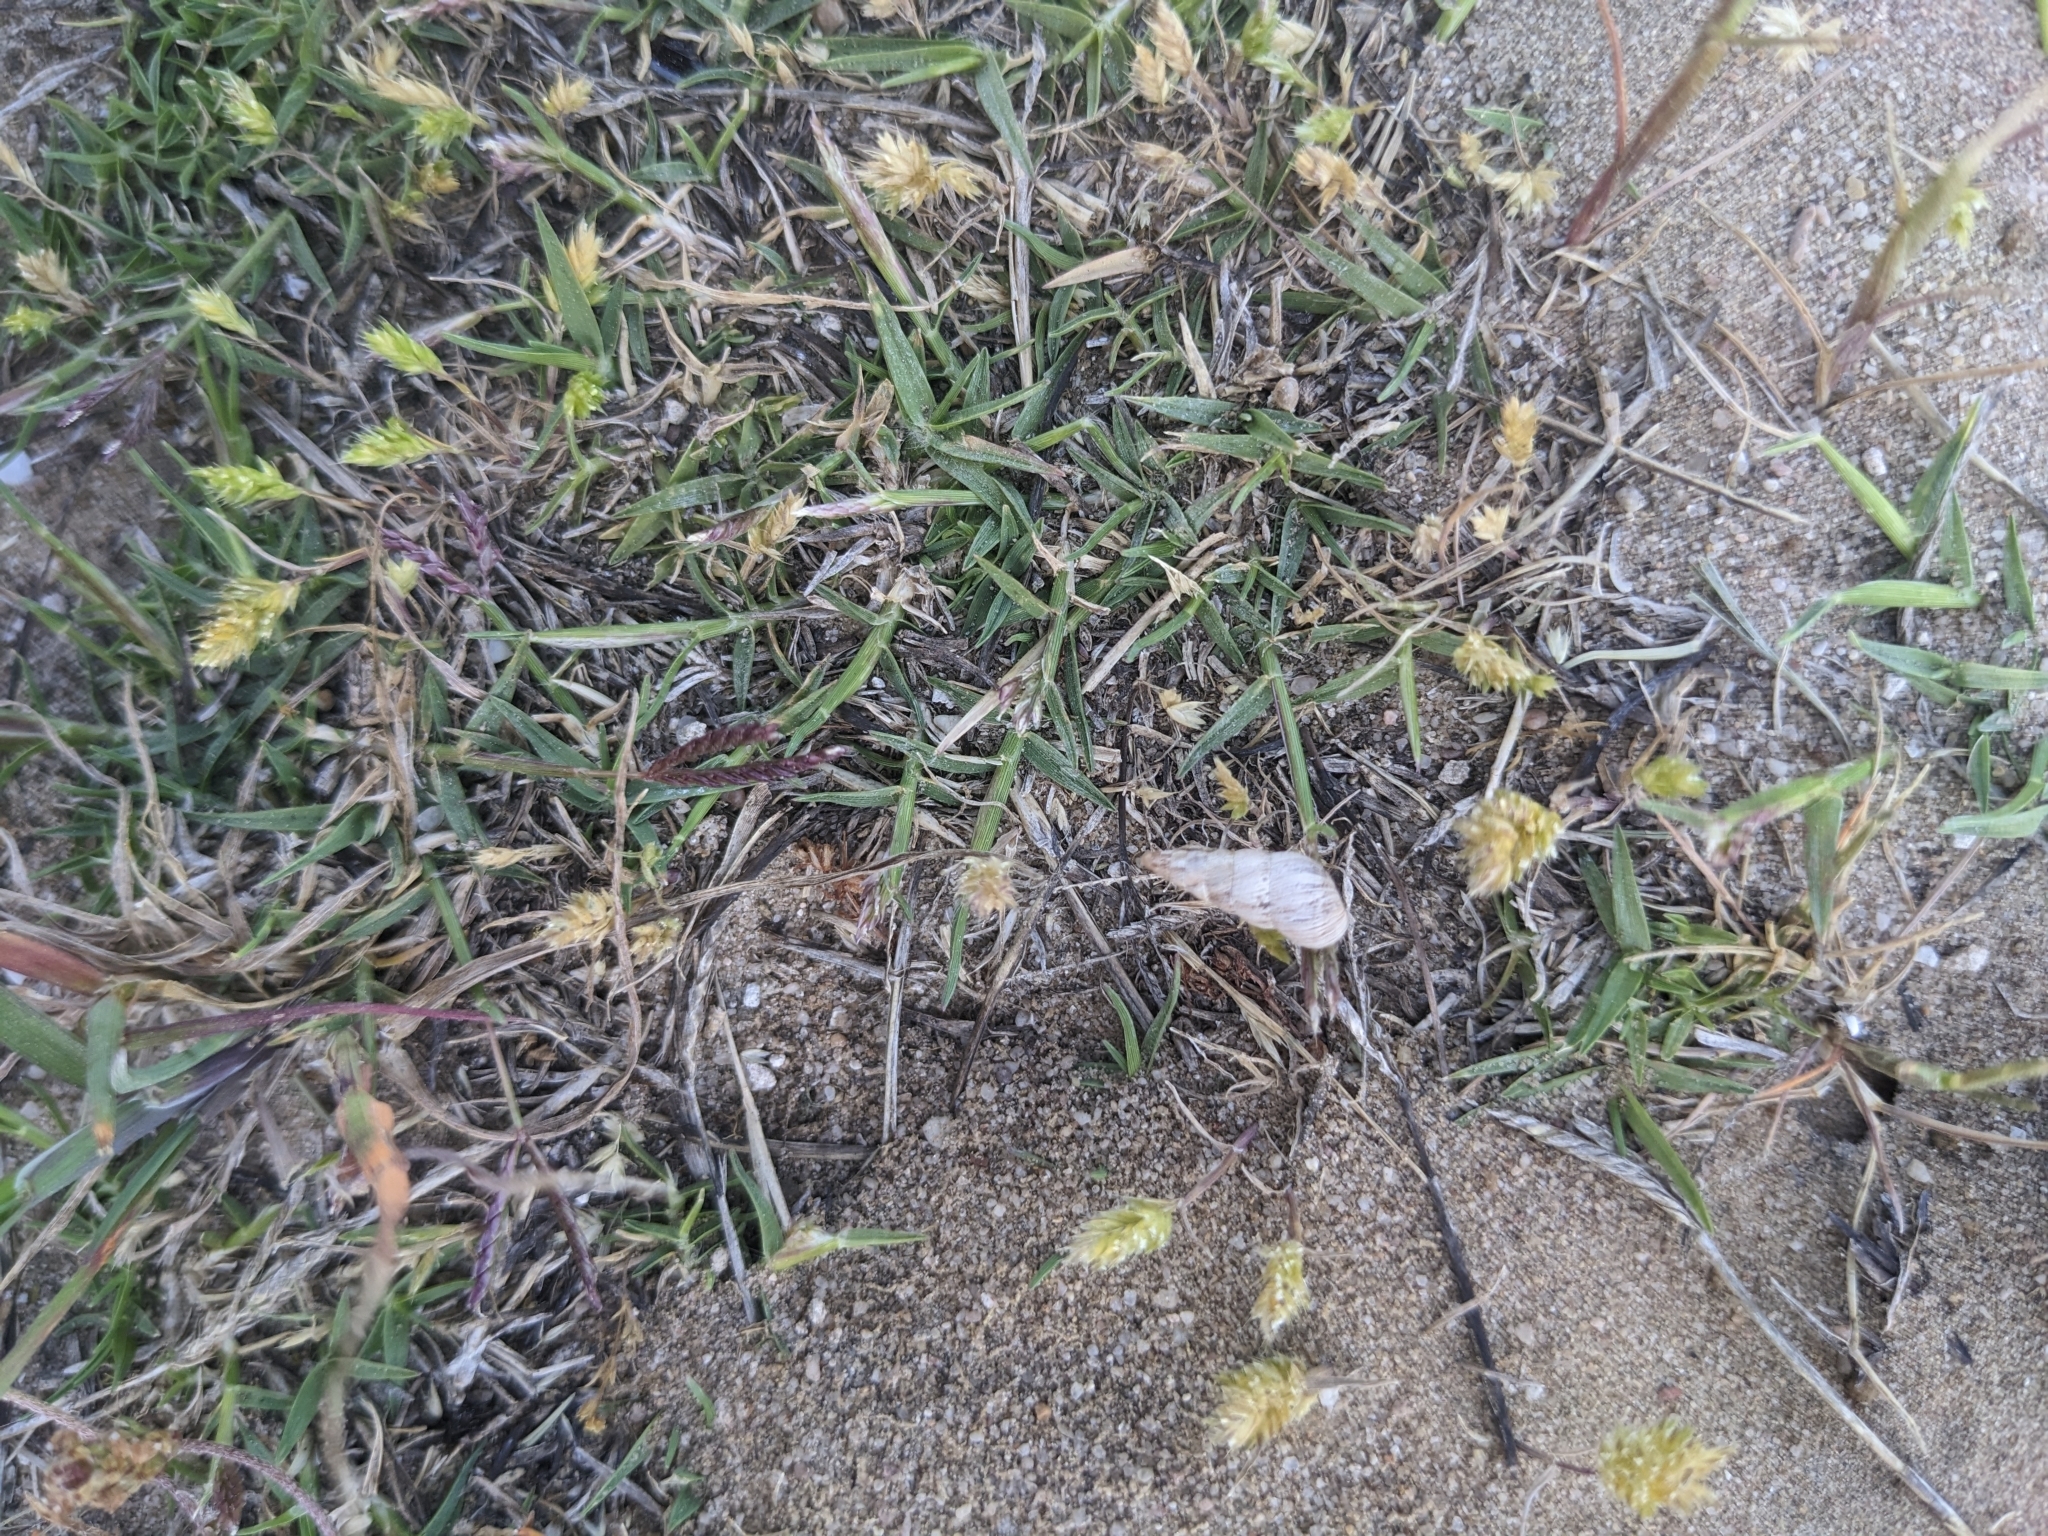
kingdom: Animalia
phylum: Mollusca
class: Gastropoda
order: Stylommatophora
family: Geomitridae
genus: Cochlicella
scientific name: Cochlicella acuta
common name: Pointed snail
